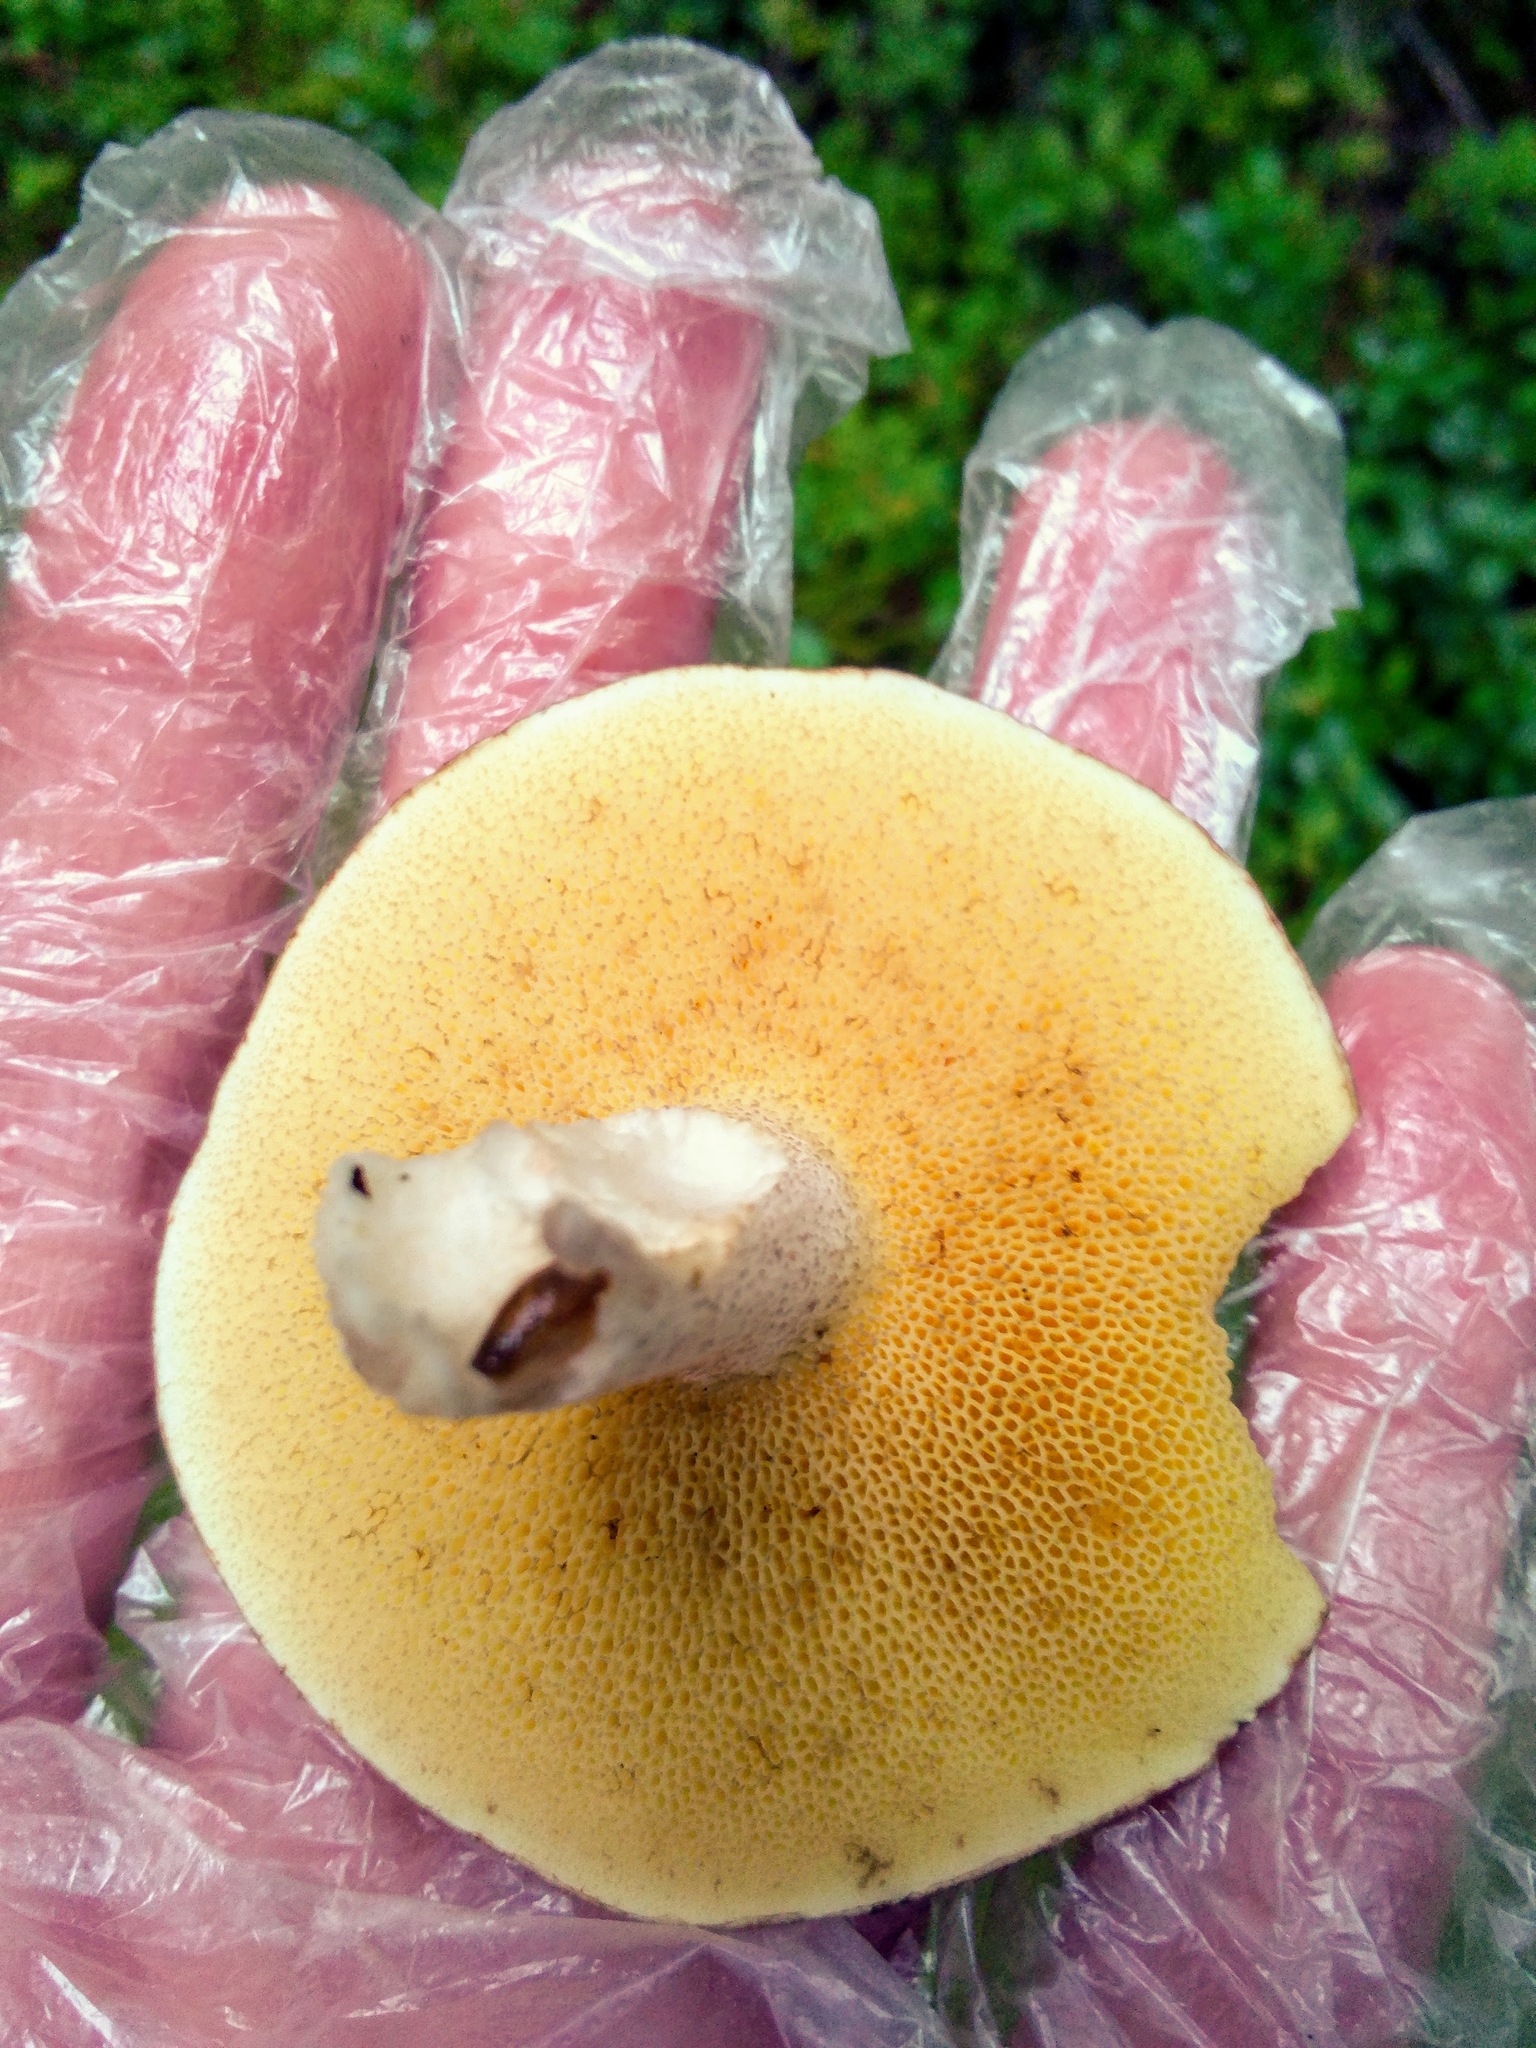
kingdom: Fungi
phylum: Basidiomycota
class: Agaricomycetes
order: Boletales
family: Suillaceae
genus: Suillus
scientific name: Suillus placidus
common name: Slippery white bolete
